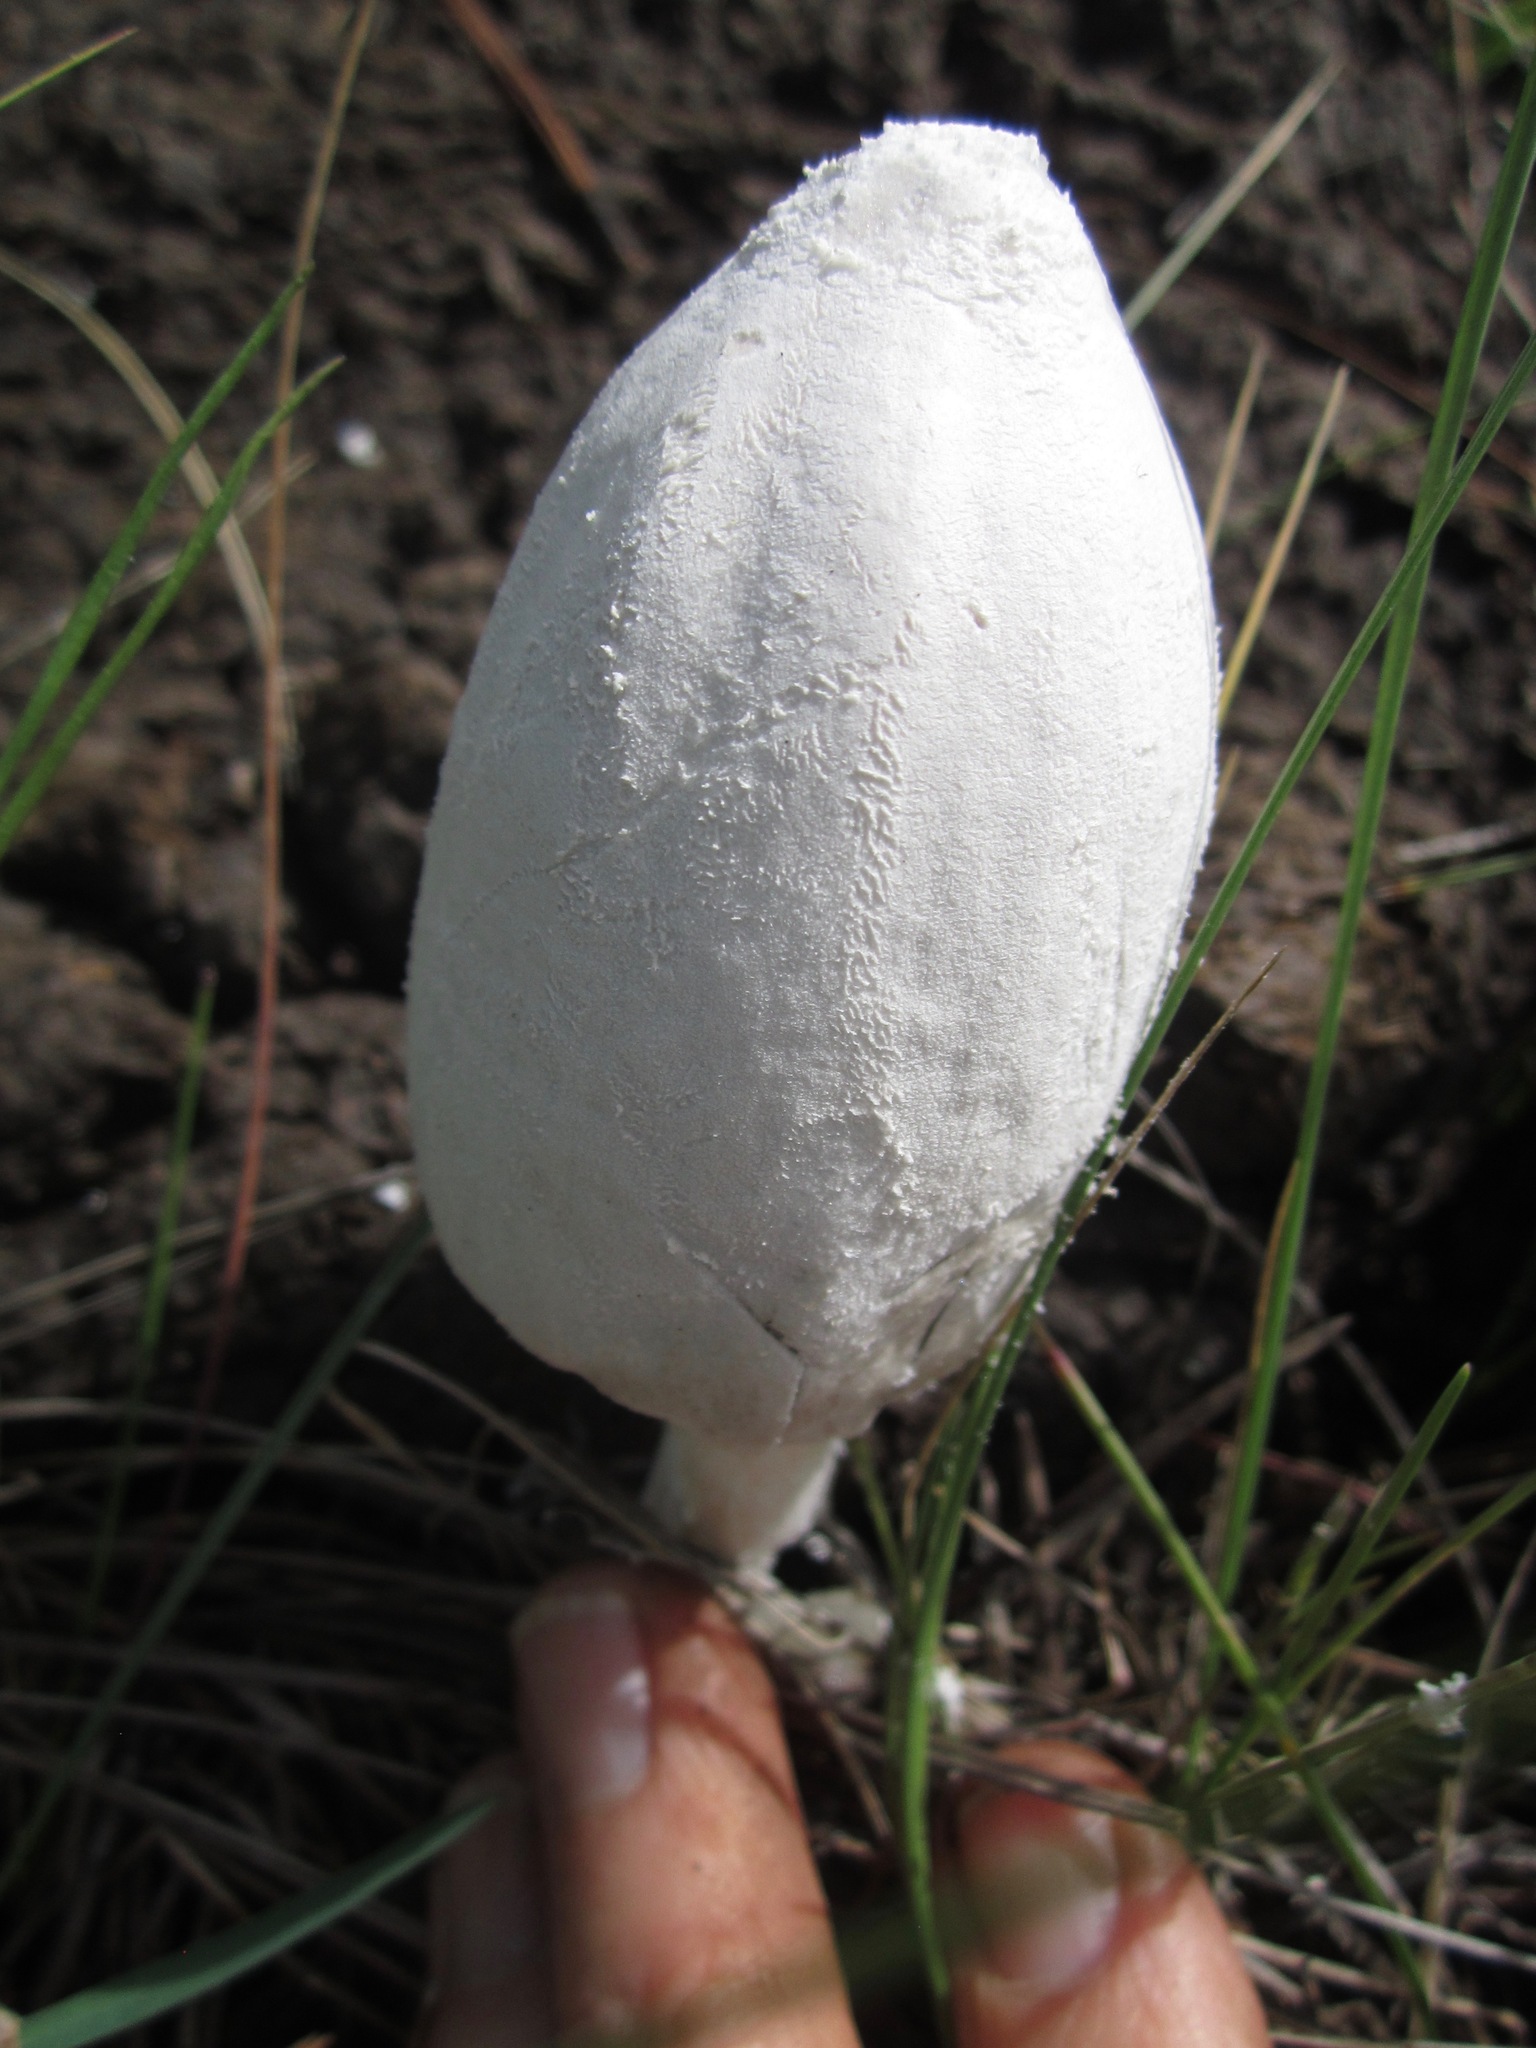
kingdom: Fungi
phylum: Basidiomycota
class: Agaricomycetes
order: Agaricales
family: Psathyrellaceae
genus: Coprinopsis
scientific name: Coprinopsis nivea
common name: Snowy inkcap
